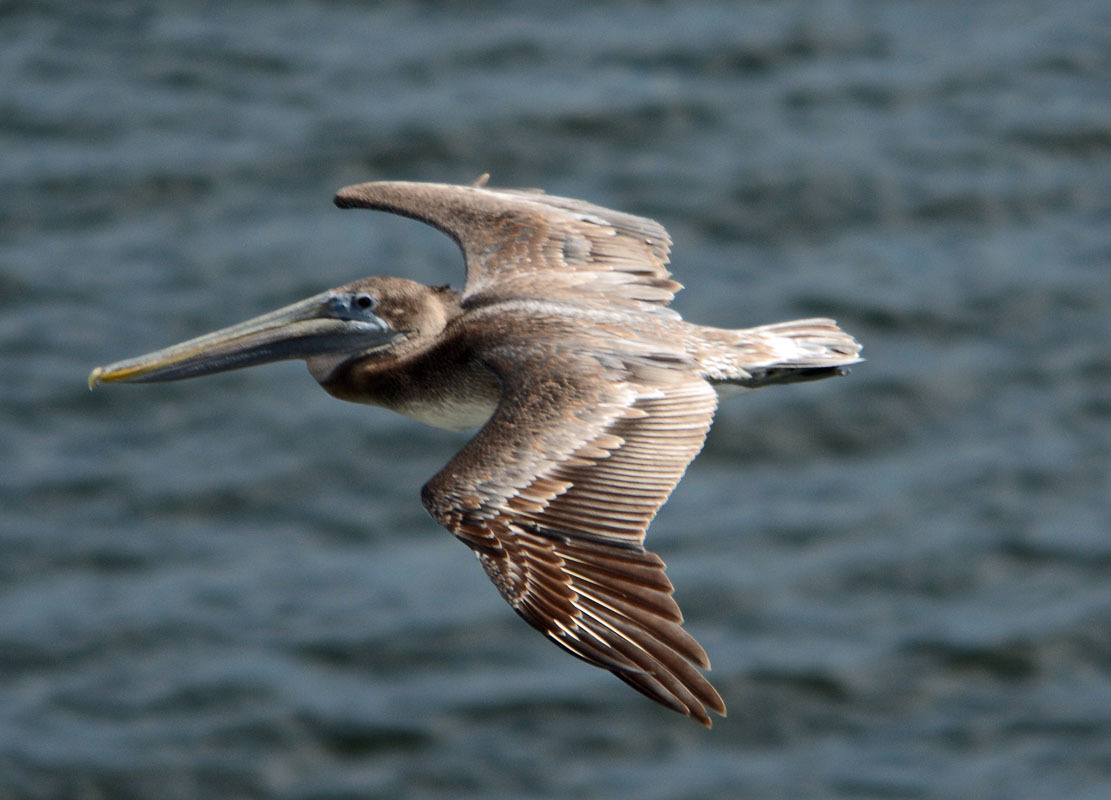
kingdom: Animalia
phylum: Chordata
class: Aves
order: Pelecaniformes
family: Pelecanidae
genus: Pelecanus
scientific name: Pelecanus occidentalis
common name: Brown pelican
